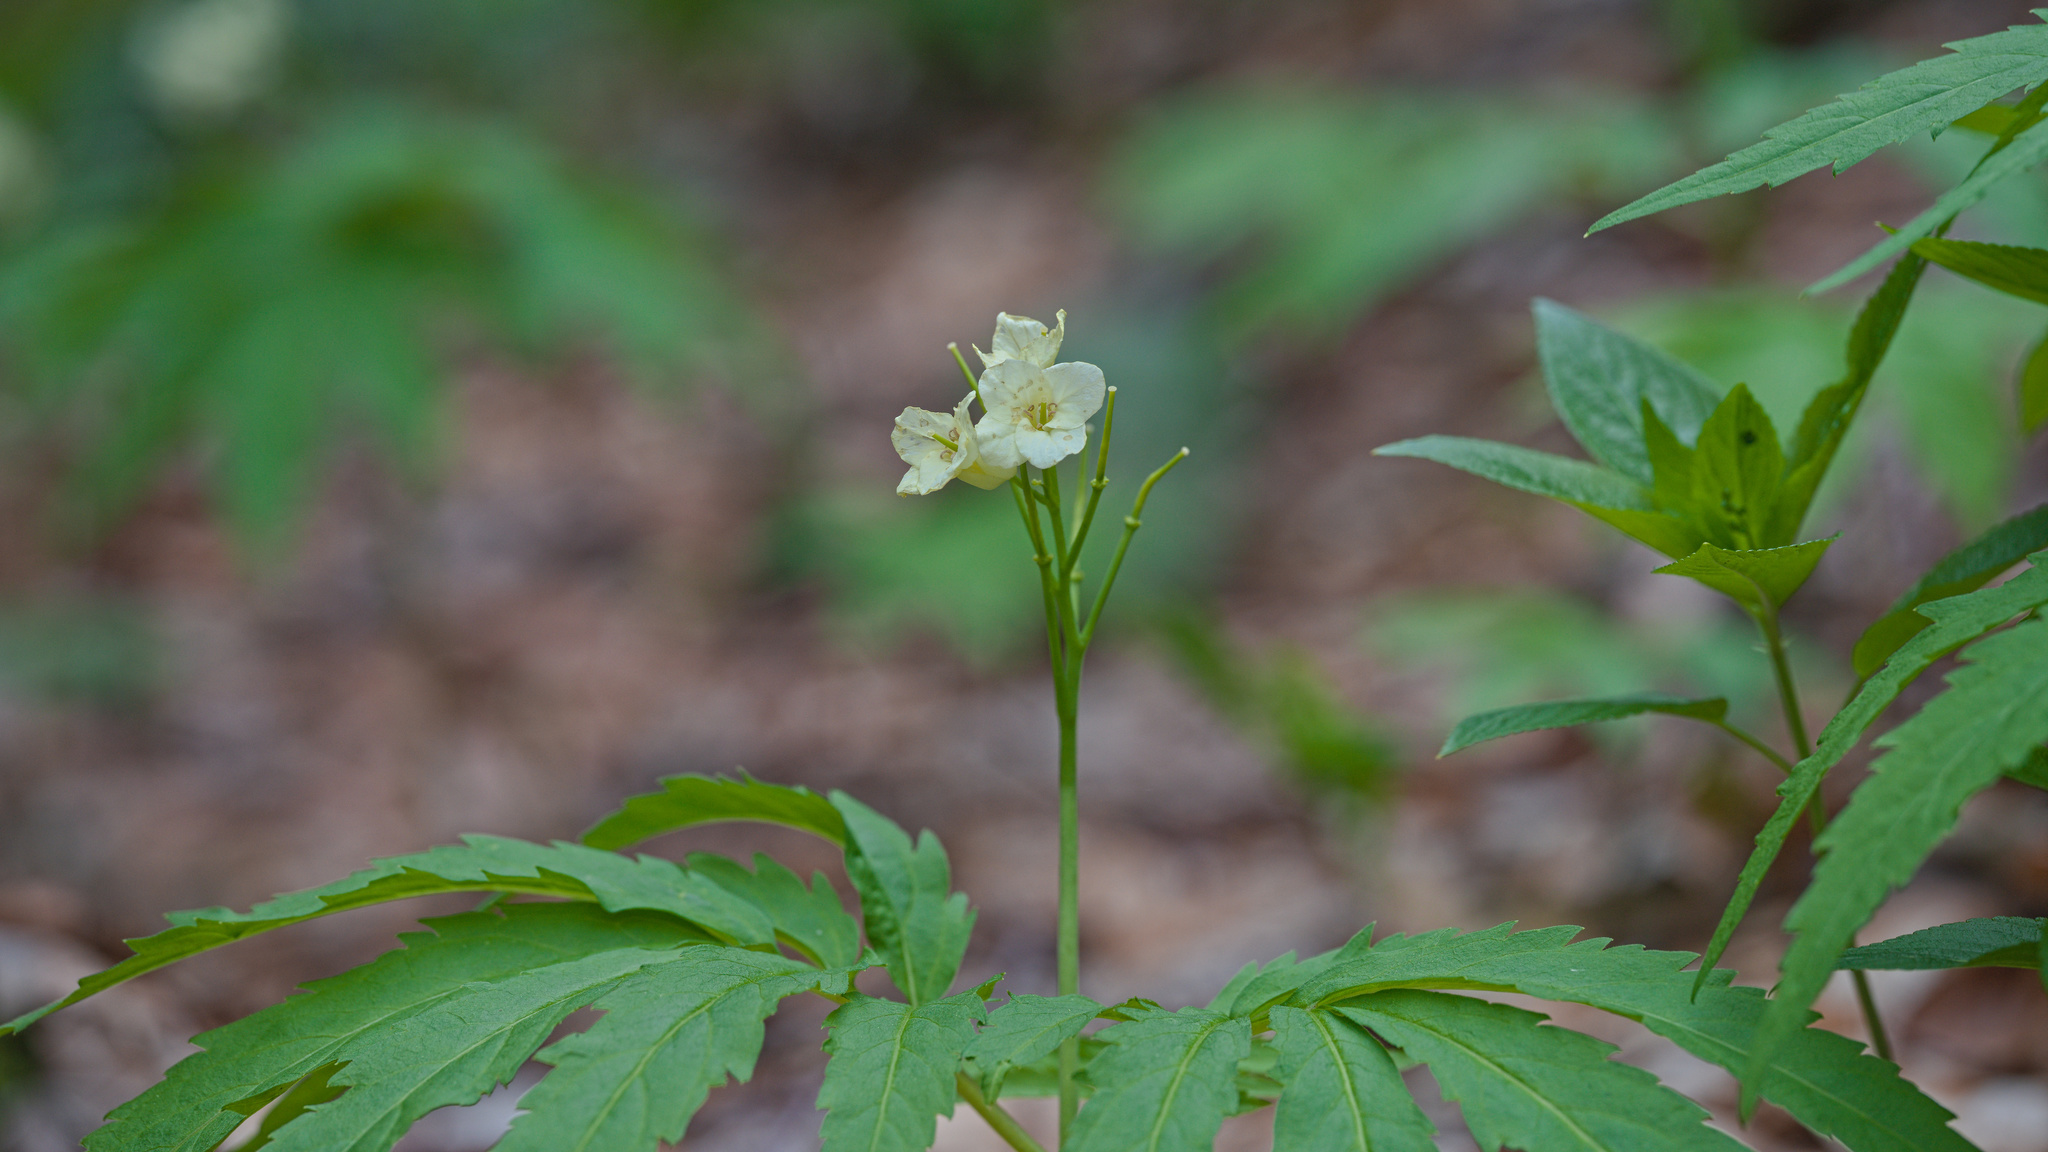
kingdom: Plantae
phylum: Tracheophyta
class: Magnoliopsida
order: Brassicales
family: Brassicaceae
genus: Cardamine
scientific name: Cardamine kitaibelii
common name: Kitaibel's bitter-cress
